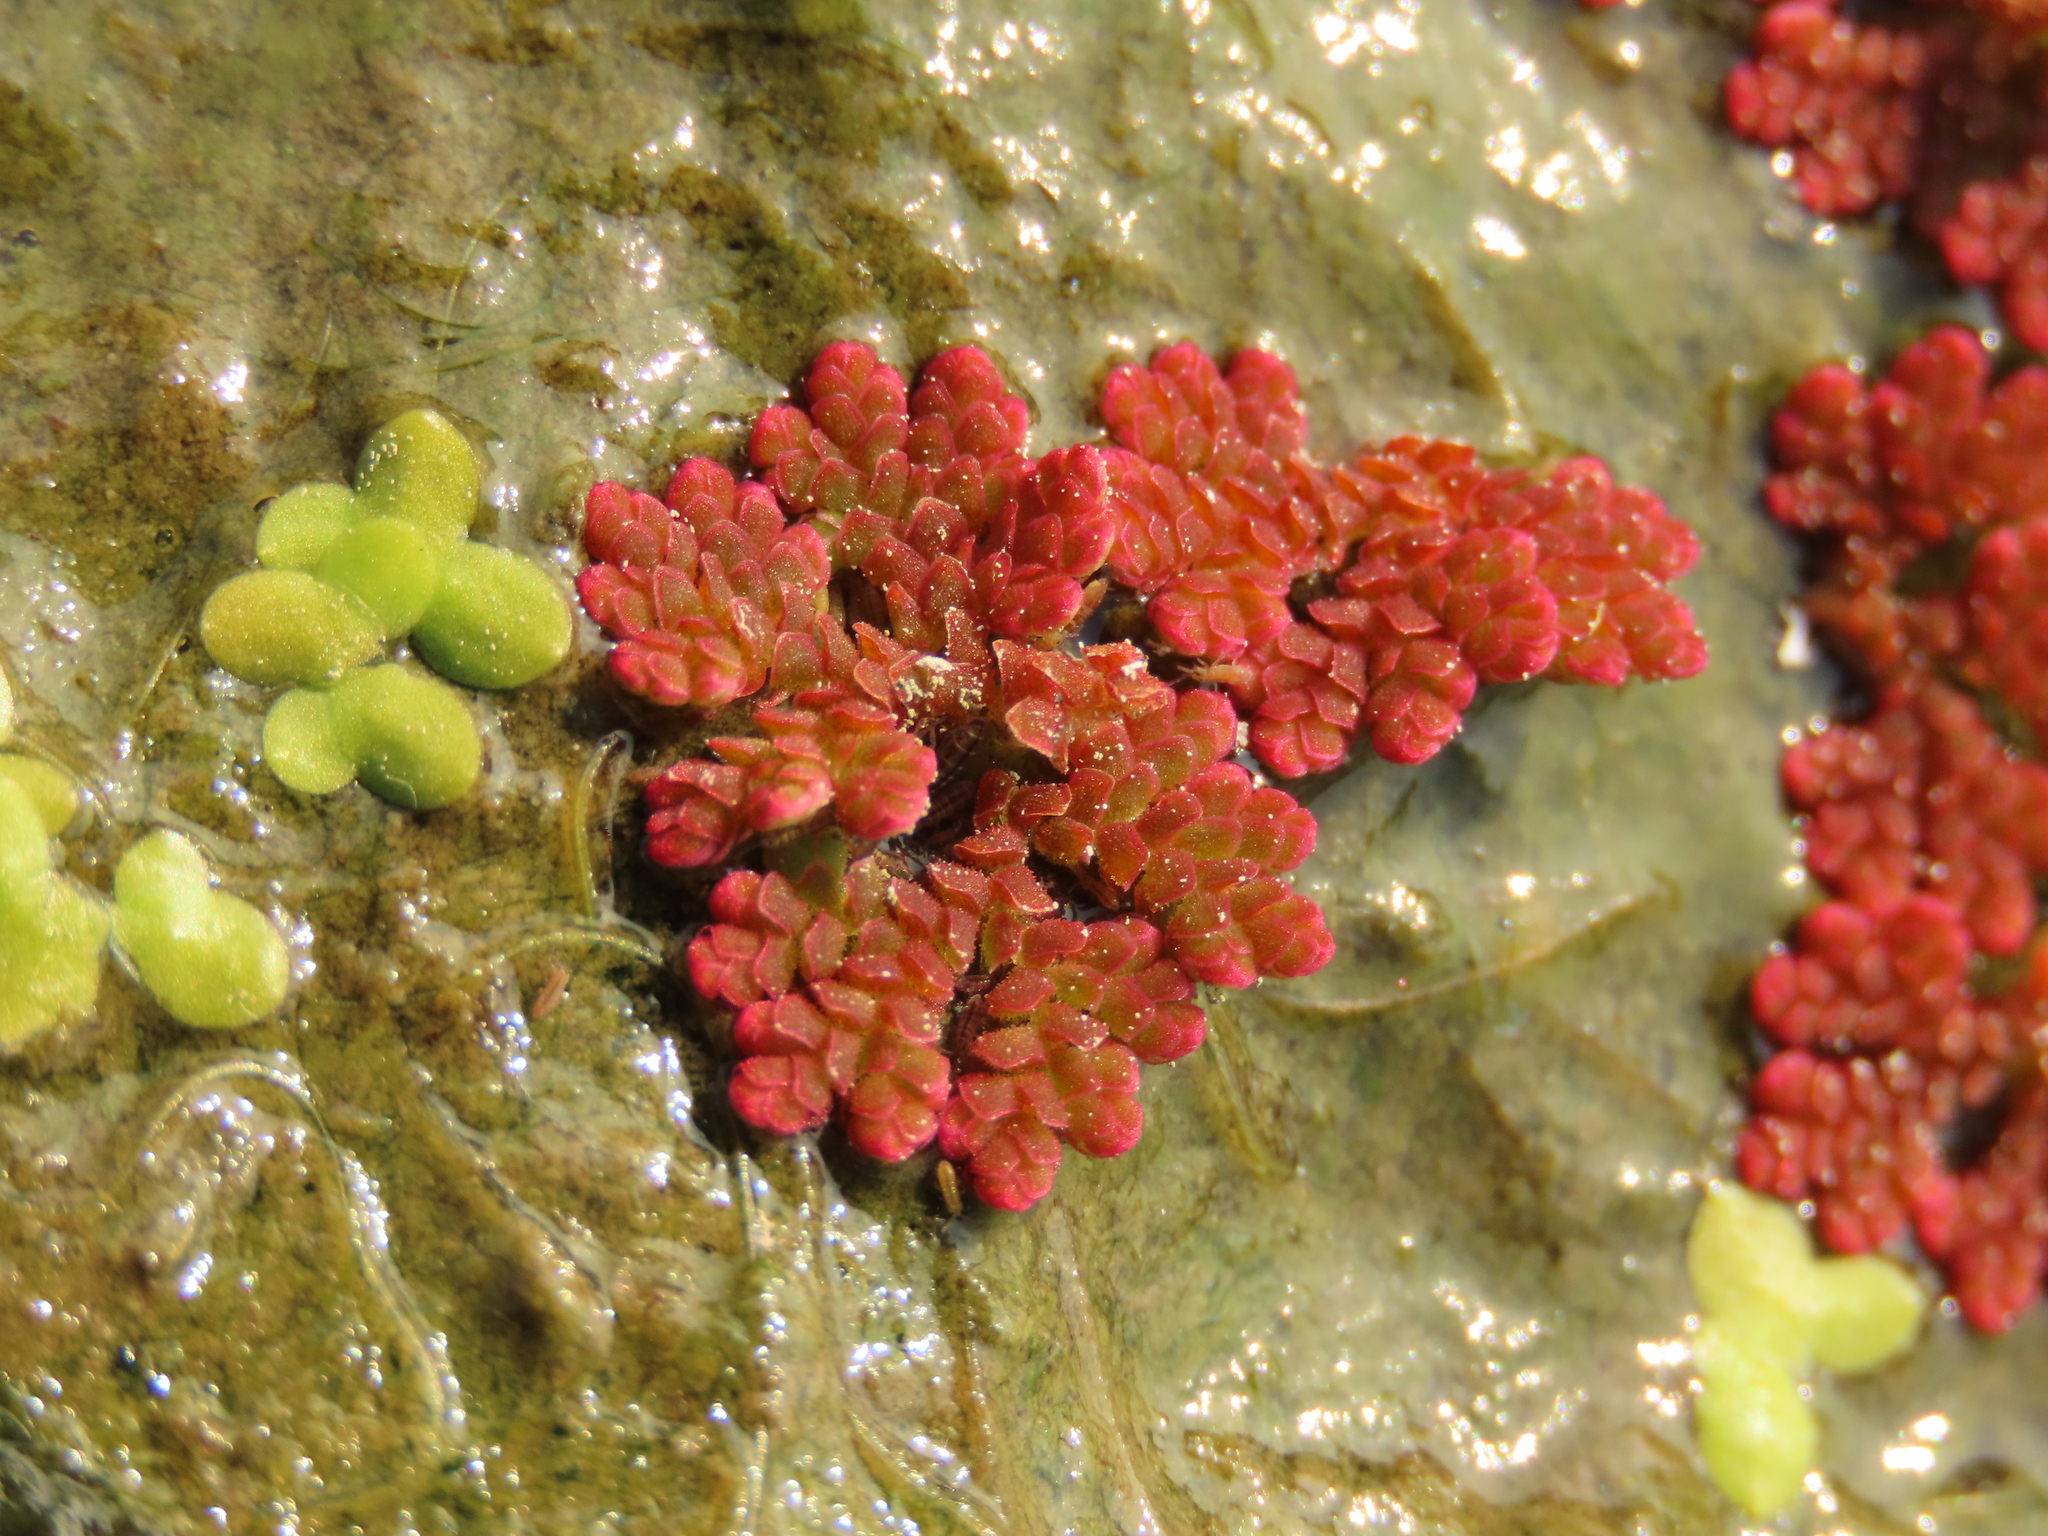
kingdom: Plantae
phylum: Tracheophyta
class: Polypodiopsida
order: Salviniales
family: Salviniaceae
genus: Azolla
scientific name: Azolla caroliniana
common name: Carolina mosquitofern
